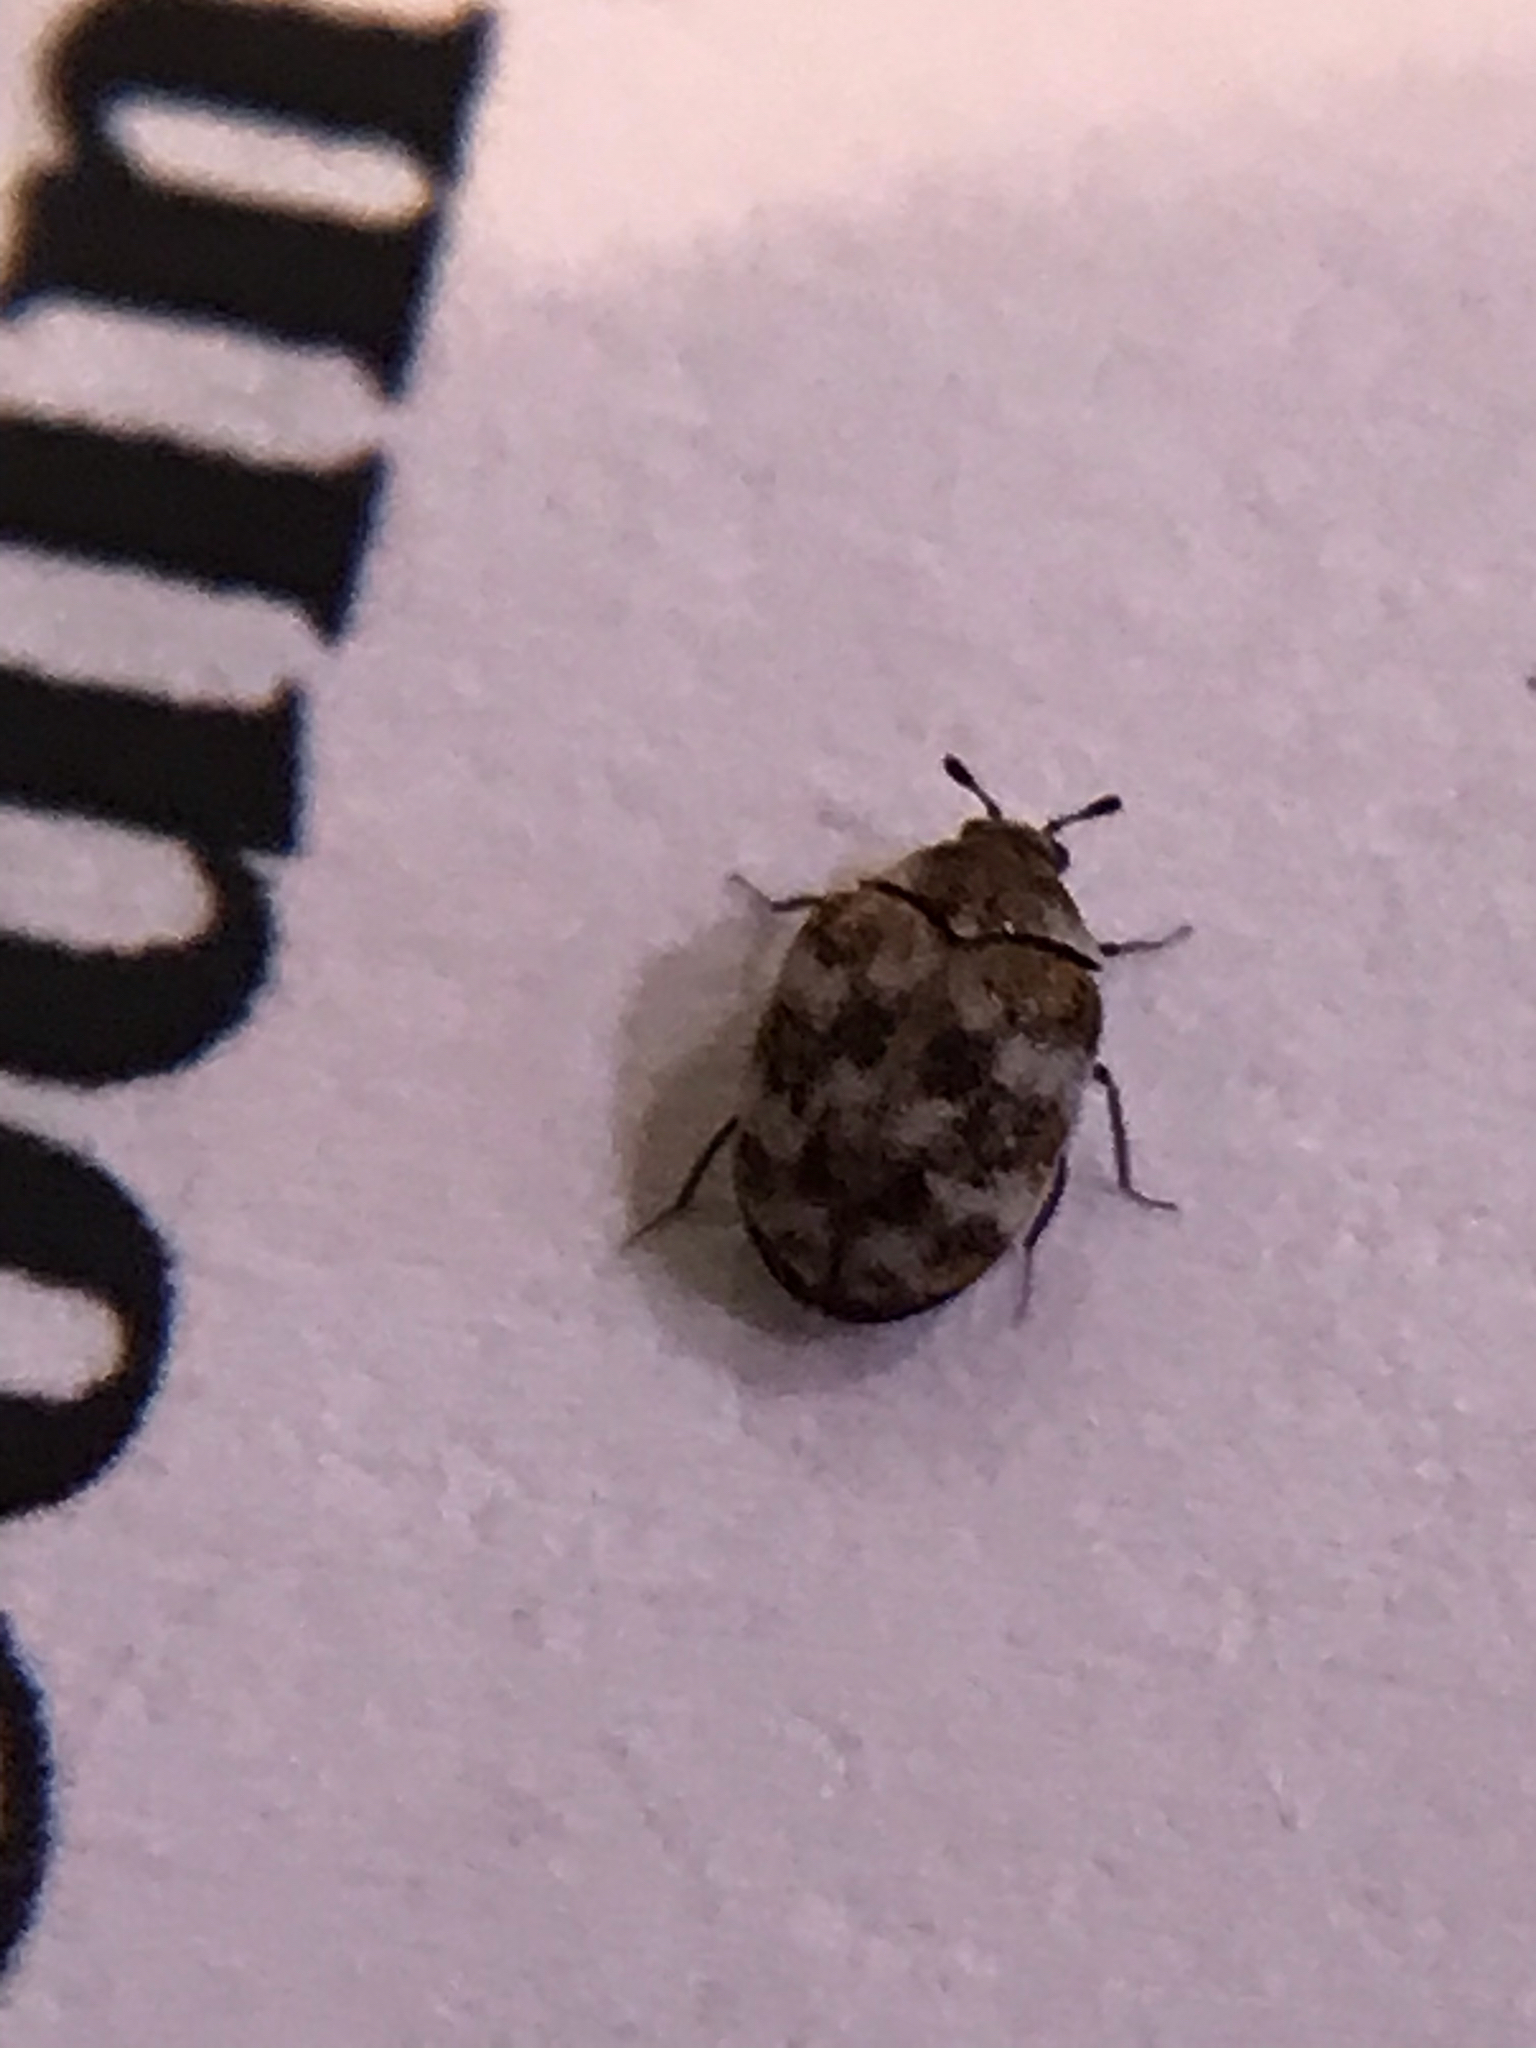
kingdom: Animalia
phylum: Arthropoda
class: Insecta
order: Coleoptera
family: Dermestidae
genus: Anthrenus
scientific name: Anthrenus verbasci
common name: Varied carpet beetle
